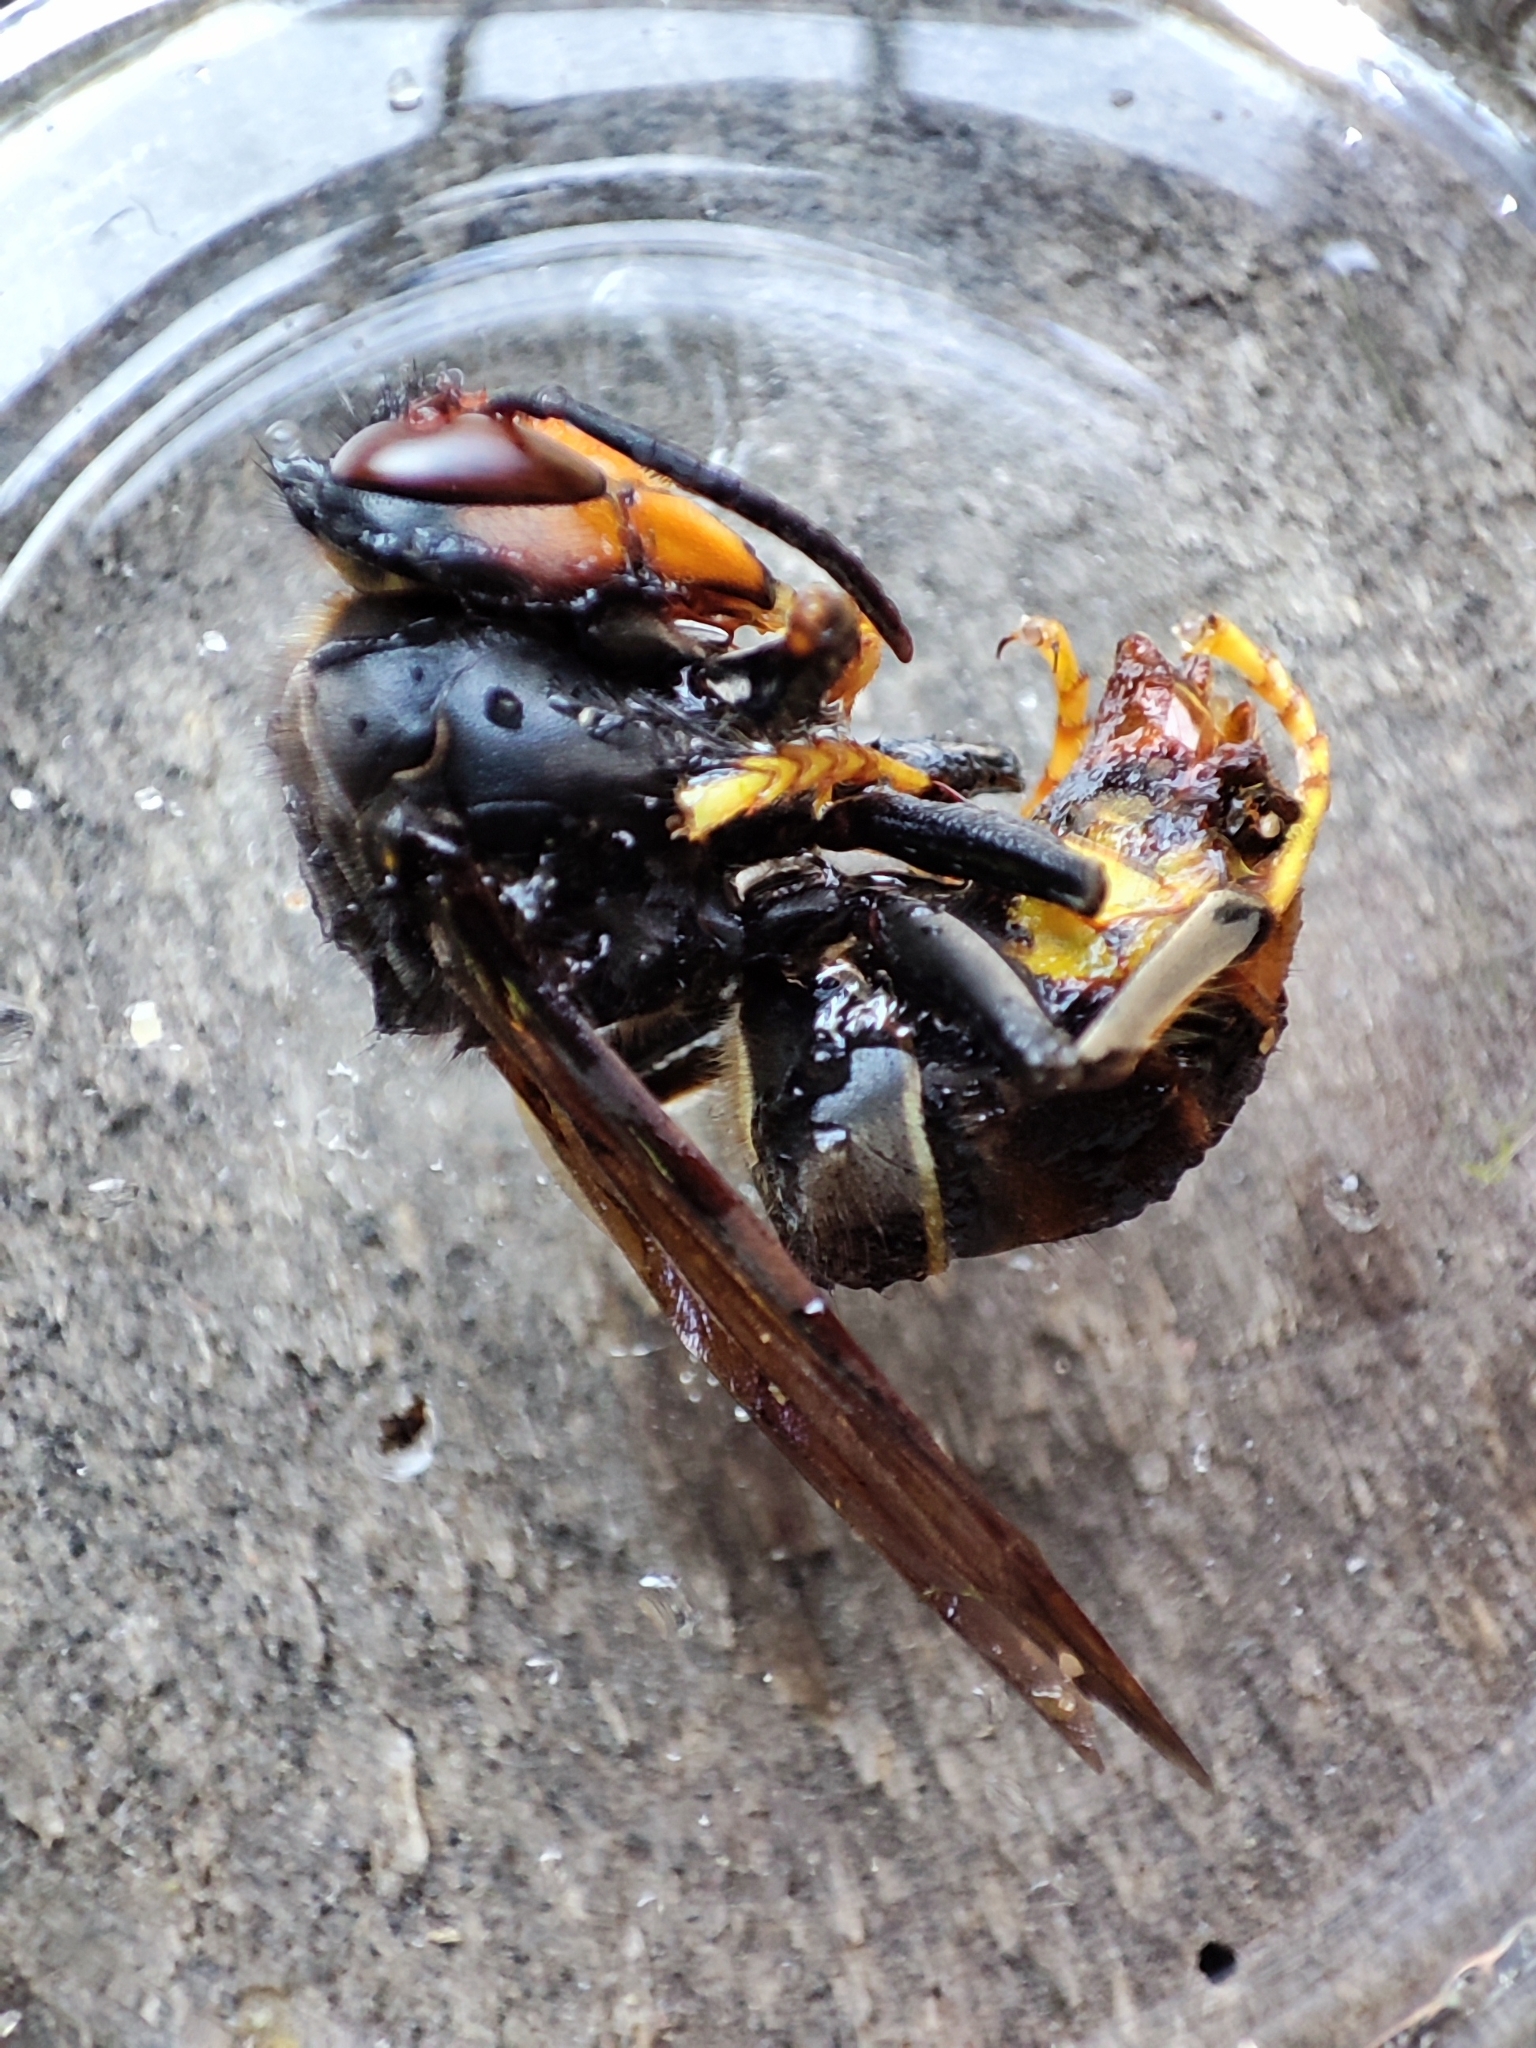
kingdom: Animalia
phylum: Arthropoda
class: Insecta
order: Hymenoptera
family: Vespidae
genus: Vespa
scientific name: Vespa velutina
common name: Asian hornet
